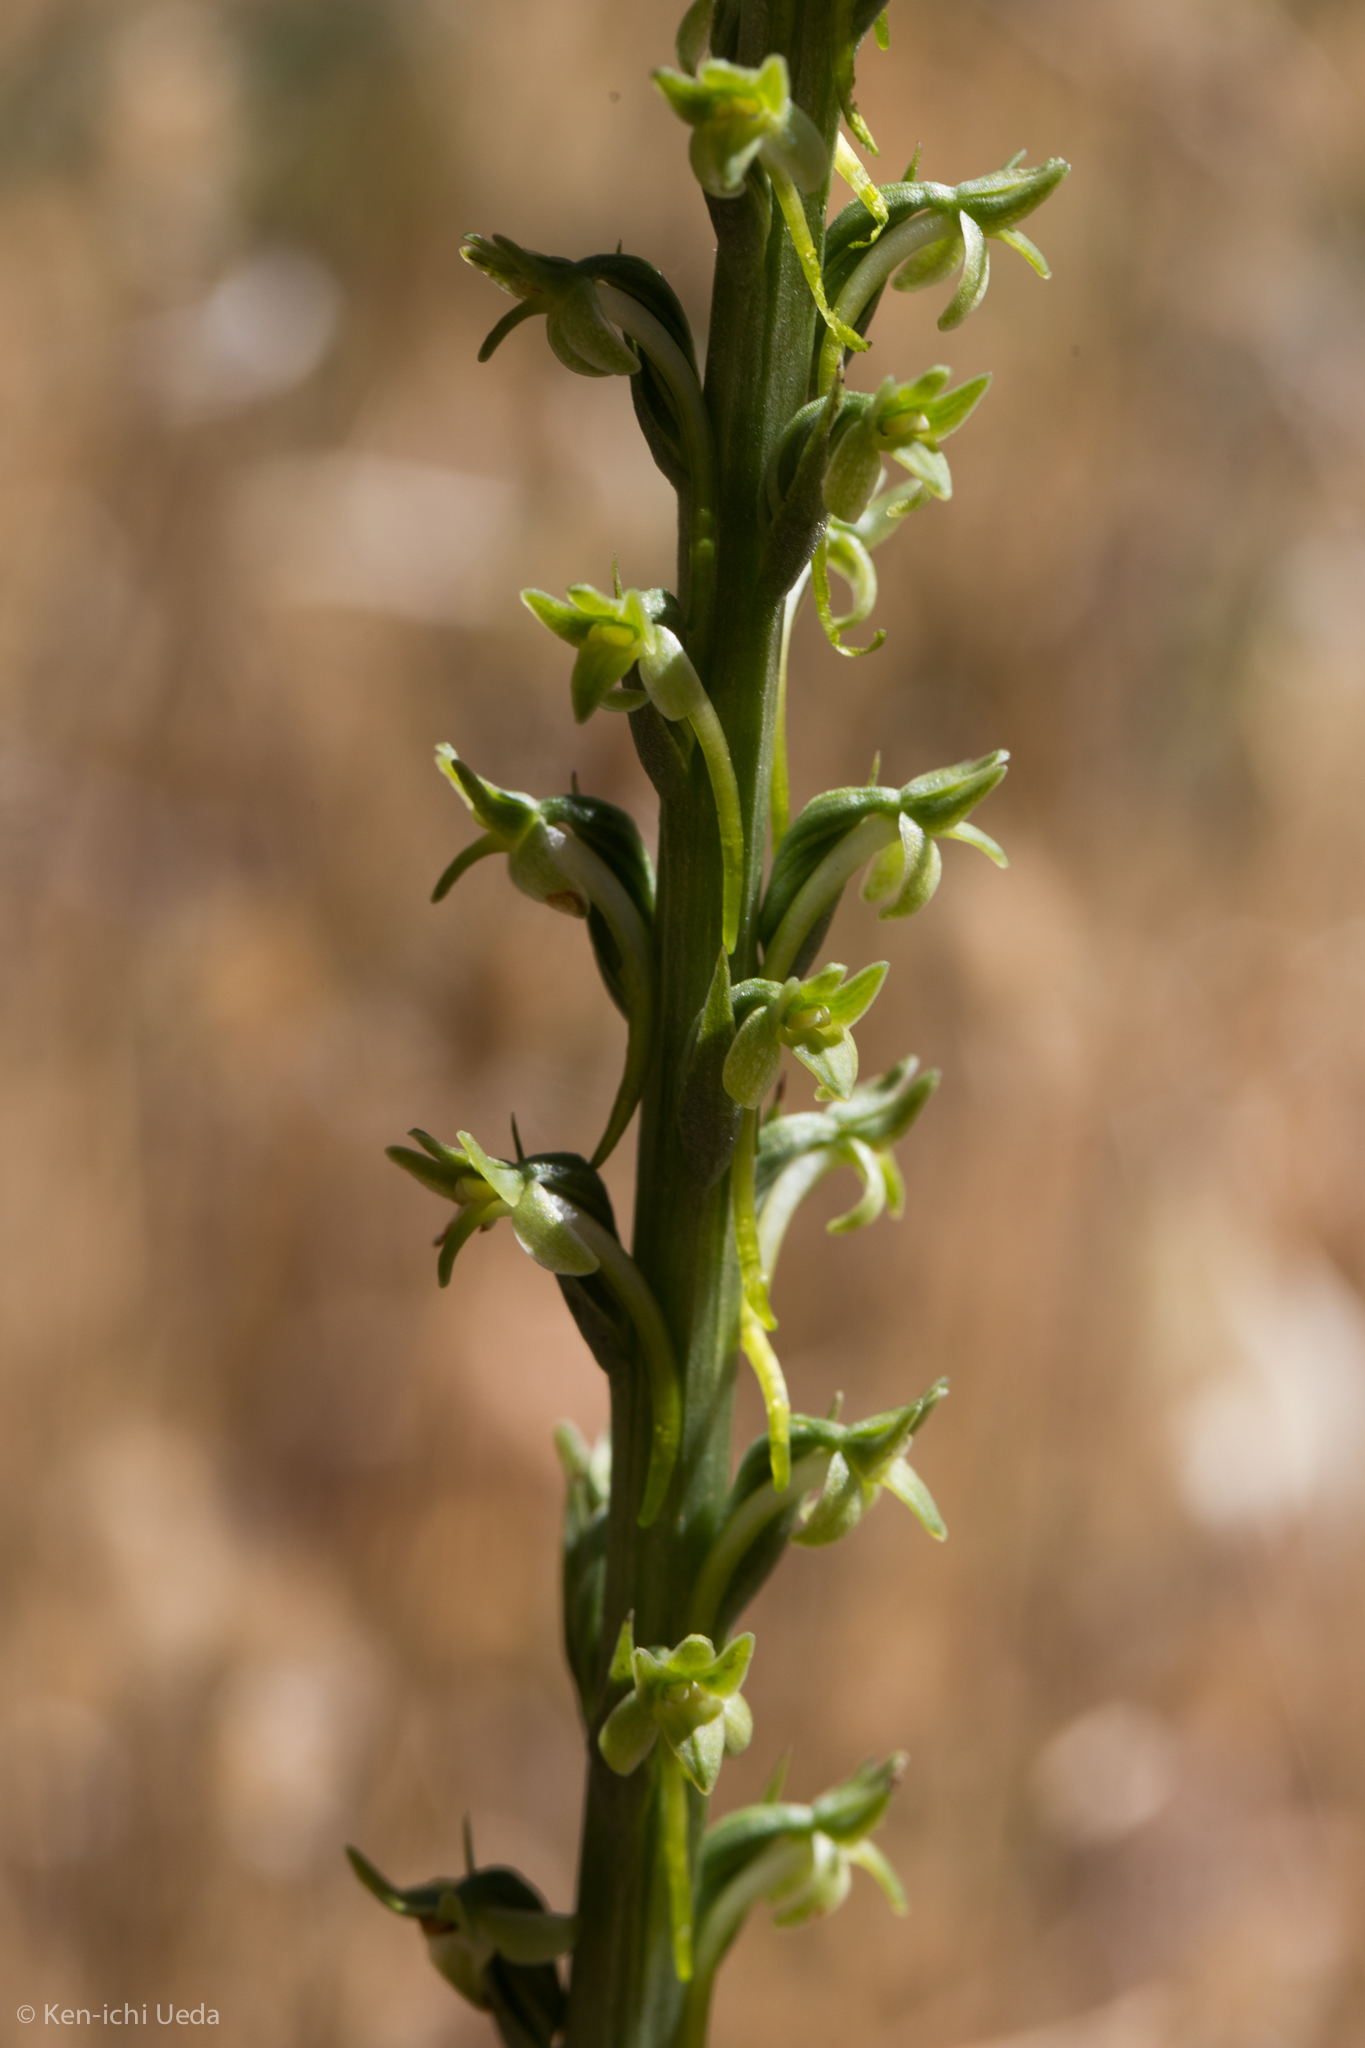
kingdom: Plantae
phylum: Tracheophyta
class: Liliopsida
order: Asparagales
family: Orchidaceae
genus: Platanthera
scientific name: Platanthera elongata
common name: Dense-flowered rein orchid
